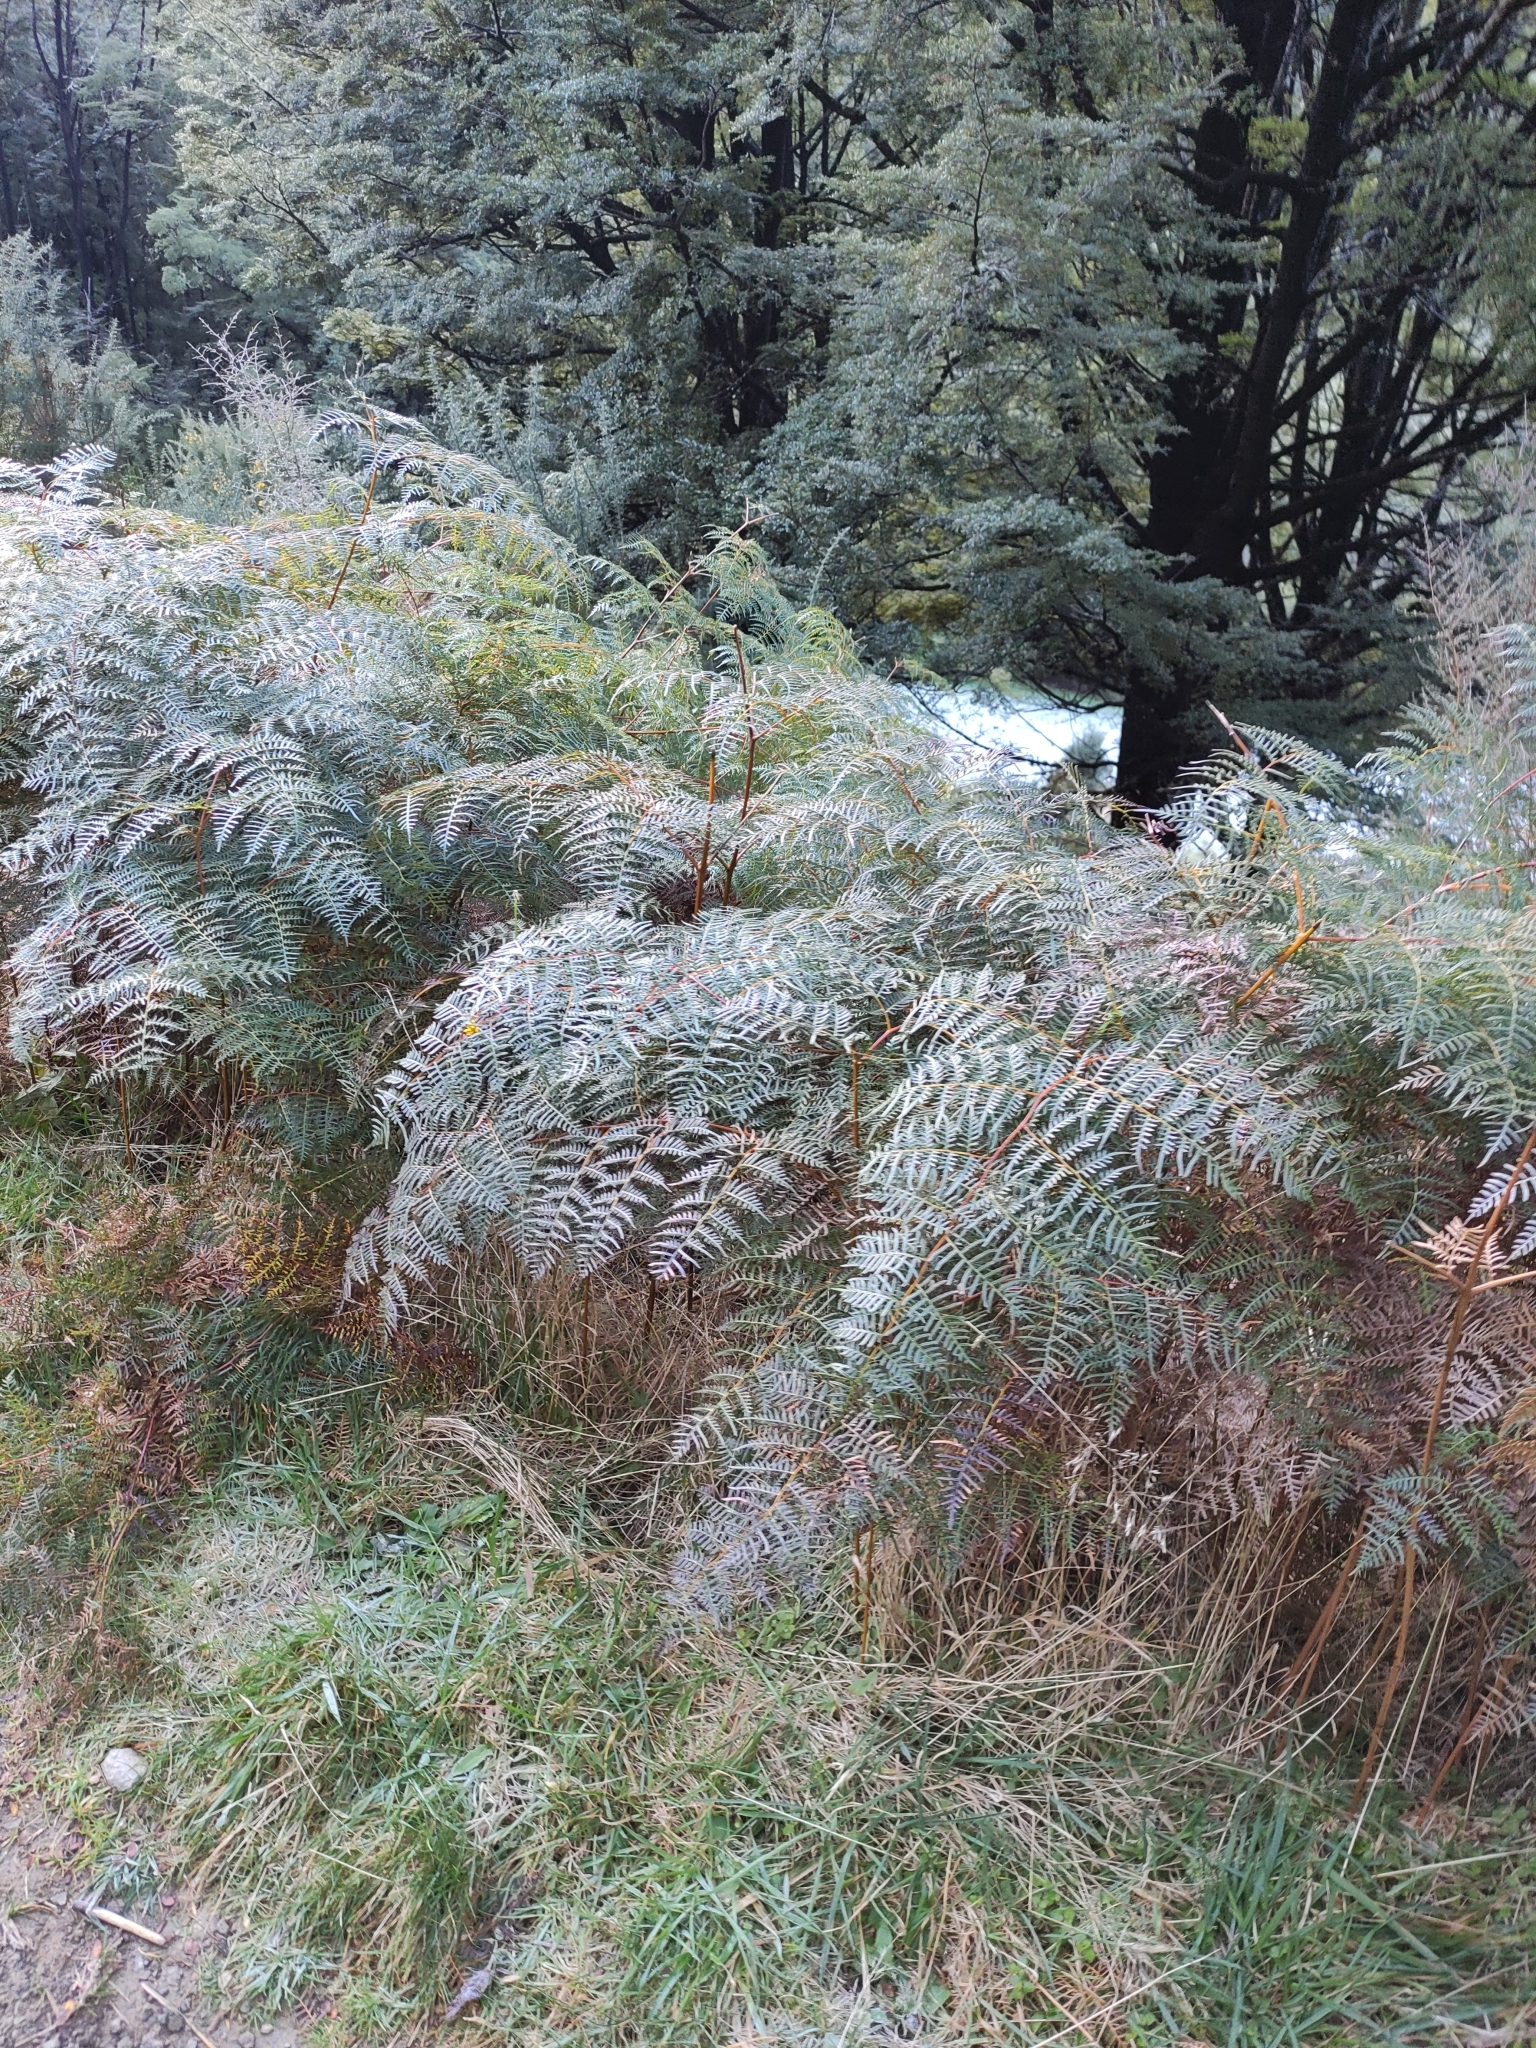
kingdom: Plantae
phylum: Tracheophyta
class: Polypodiopsida
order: Polypodiales
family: Dennstaedtiaceae
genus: Pteridium
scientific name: Pteridium esculentum
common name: Bracken fern
